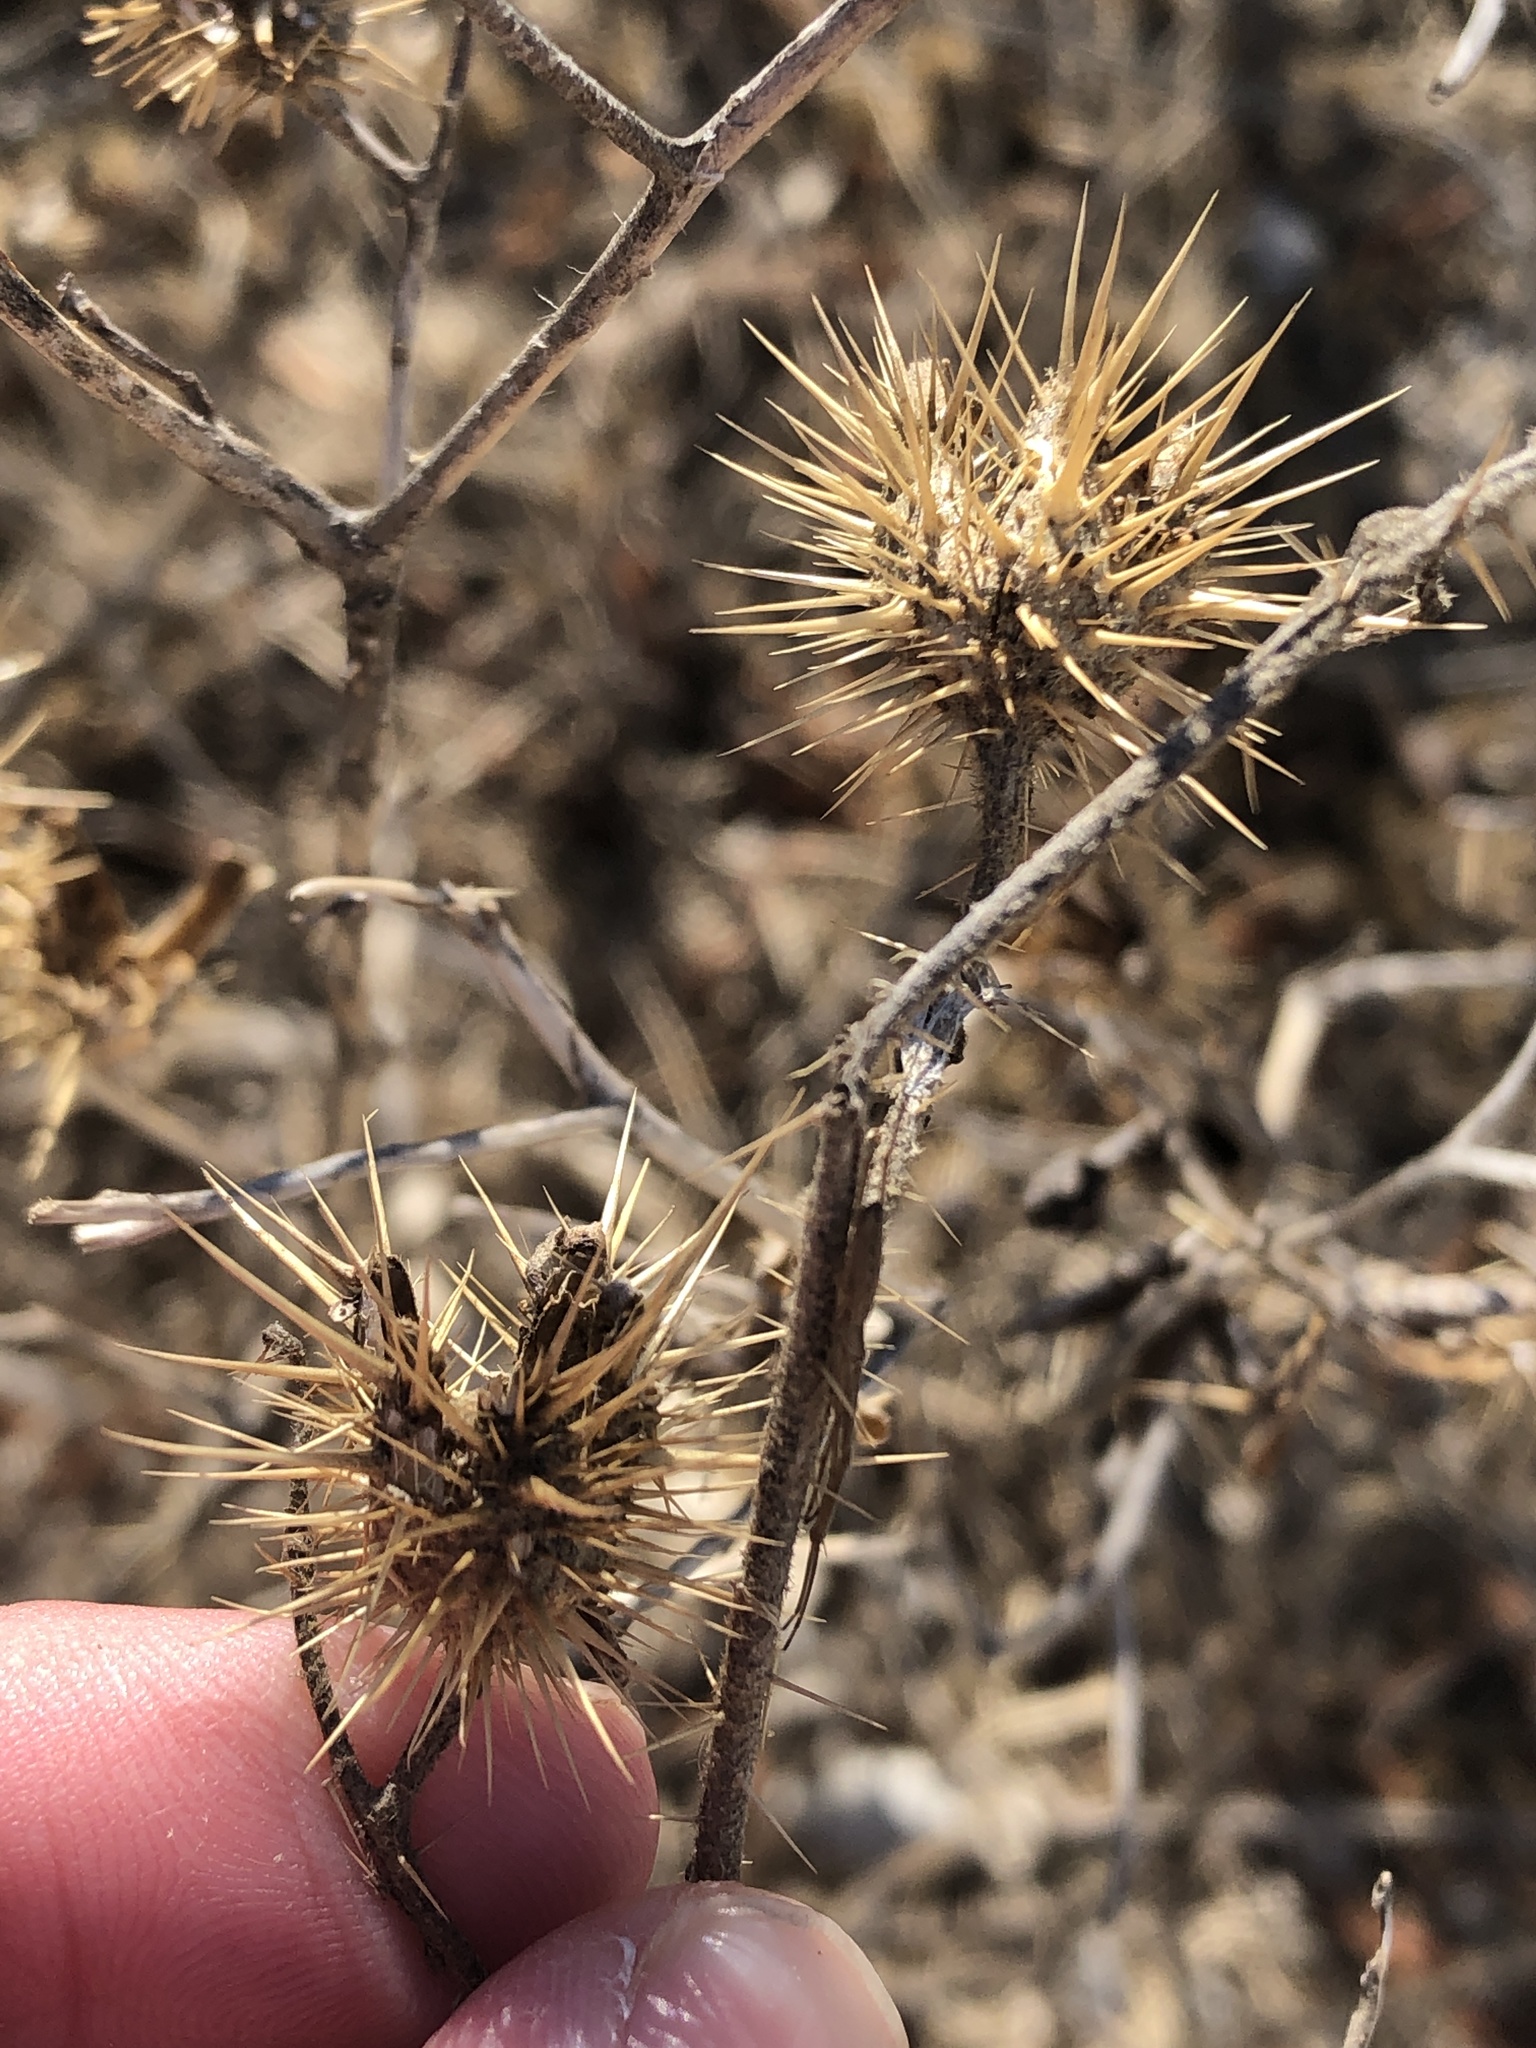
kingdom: Plantae
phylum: Tracheophyta
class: Magnoliopsida
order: Solanales
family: Solanaceae
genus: Solanum
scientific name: Solanum angustifolium
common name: Buffalobur nightshade
